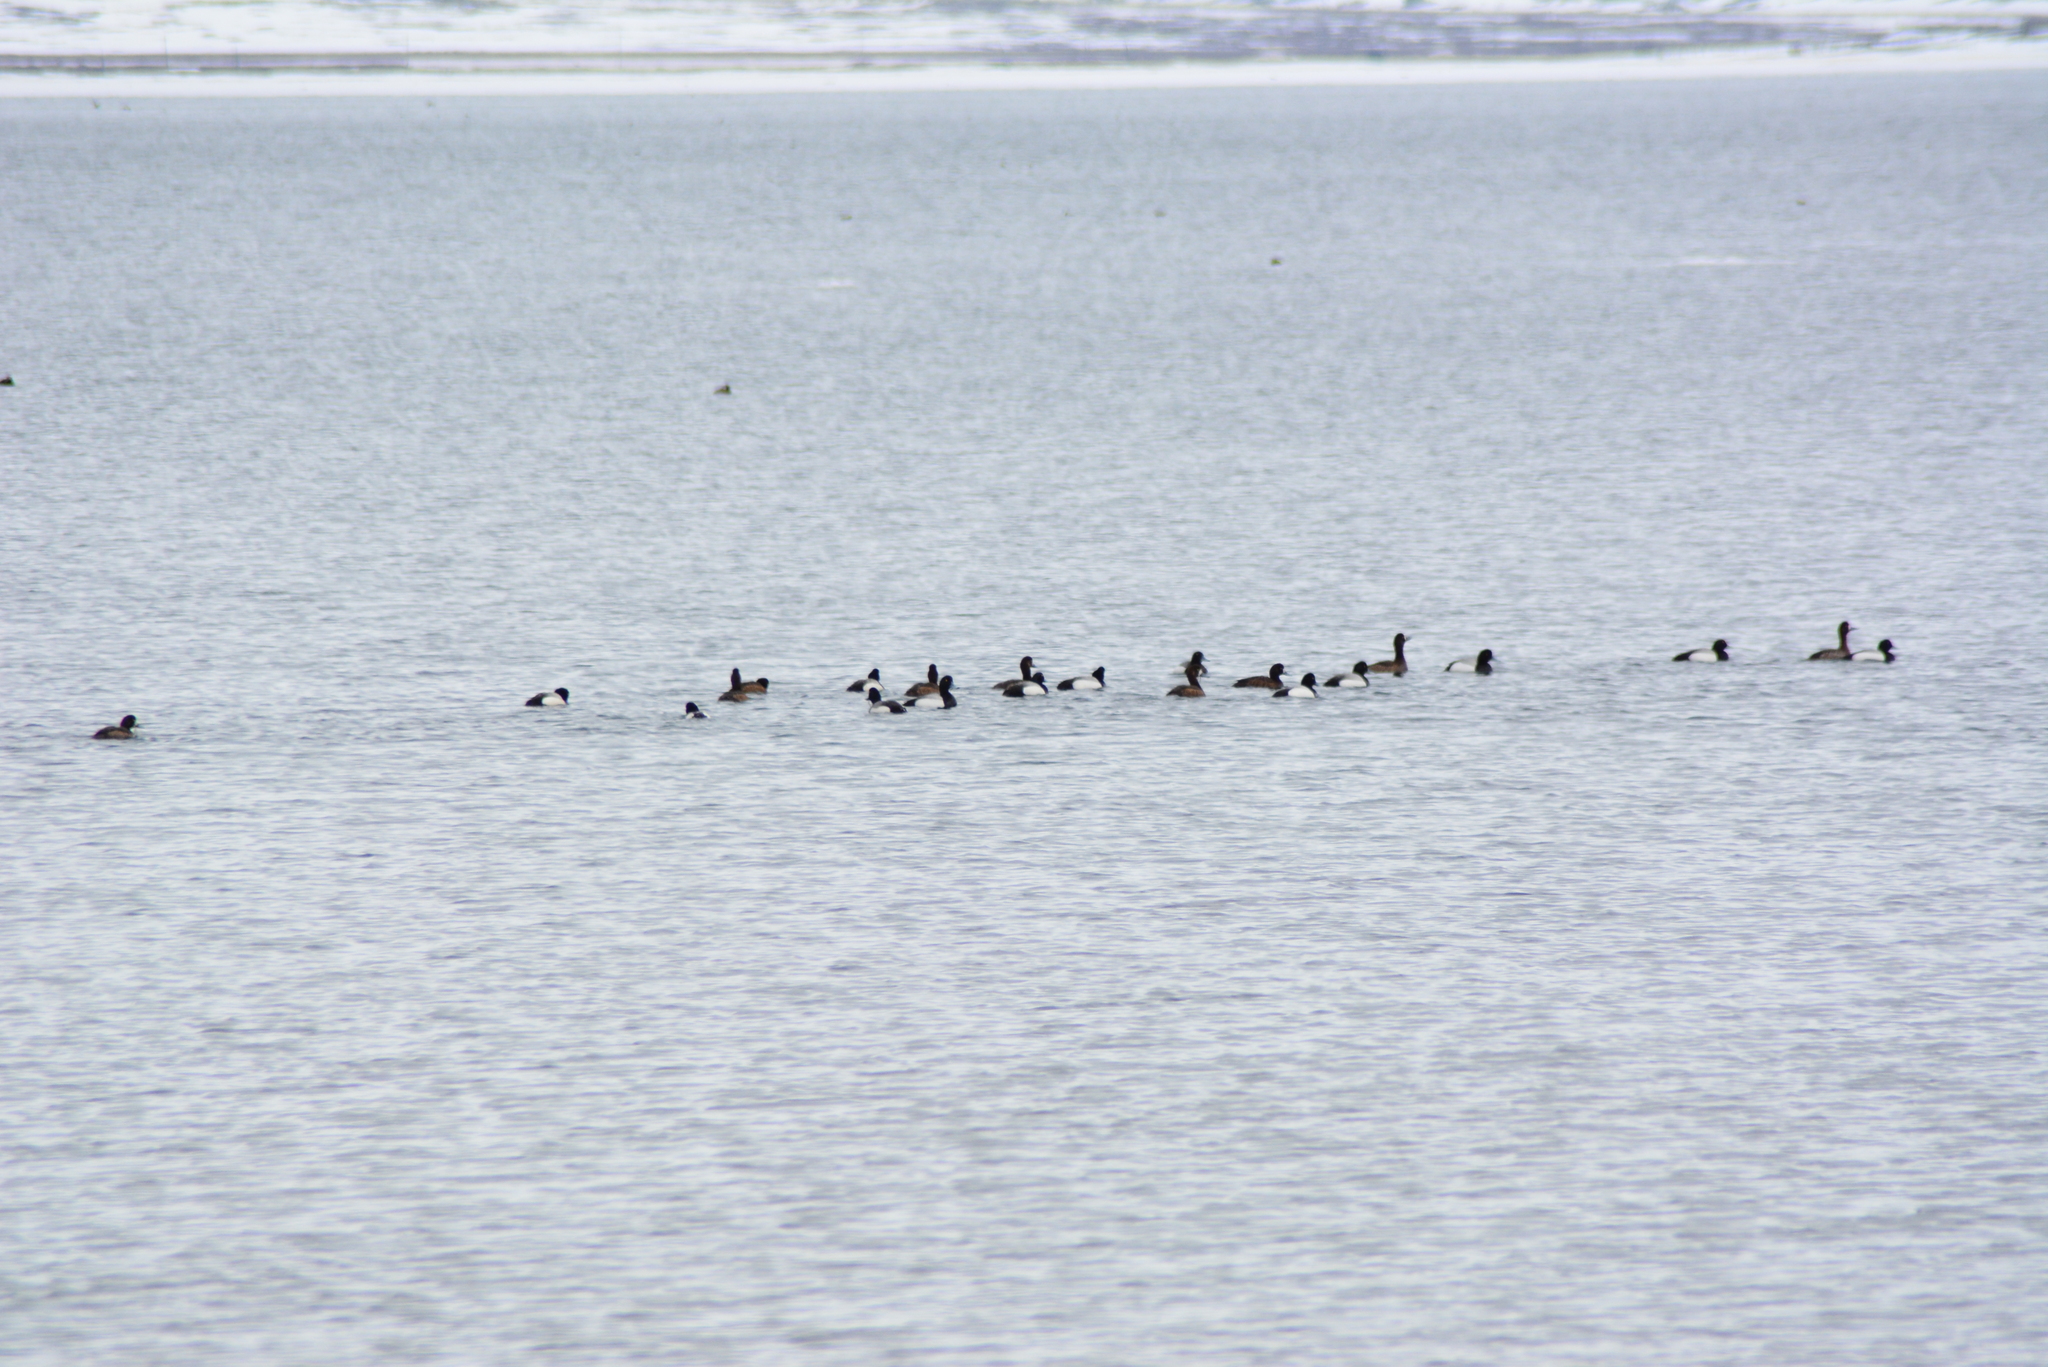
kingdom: Animalia
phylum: Chordata
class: Aves
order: Anseriformes
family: Anatidae
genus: Aythya
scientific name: Aythya marila
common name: Greater scaup
